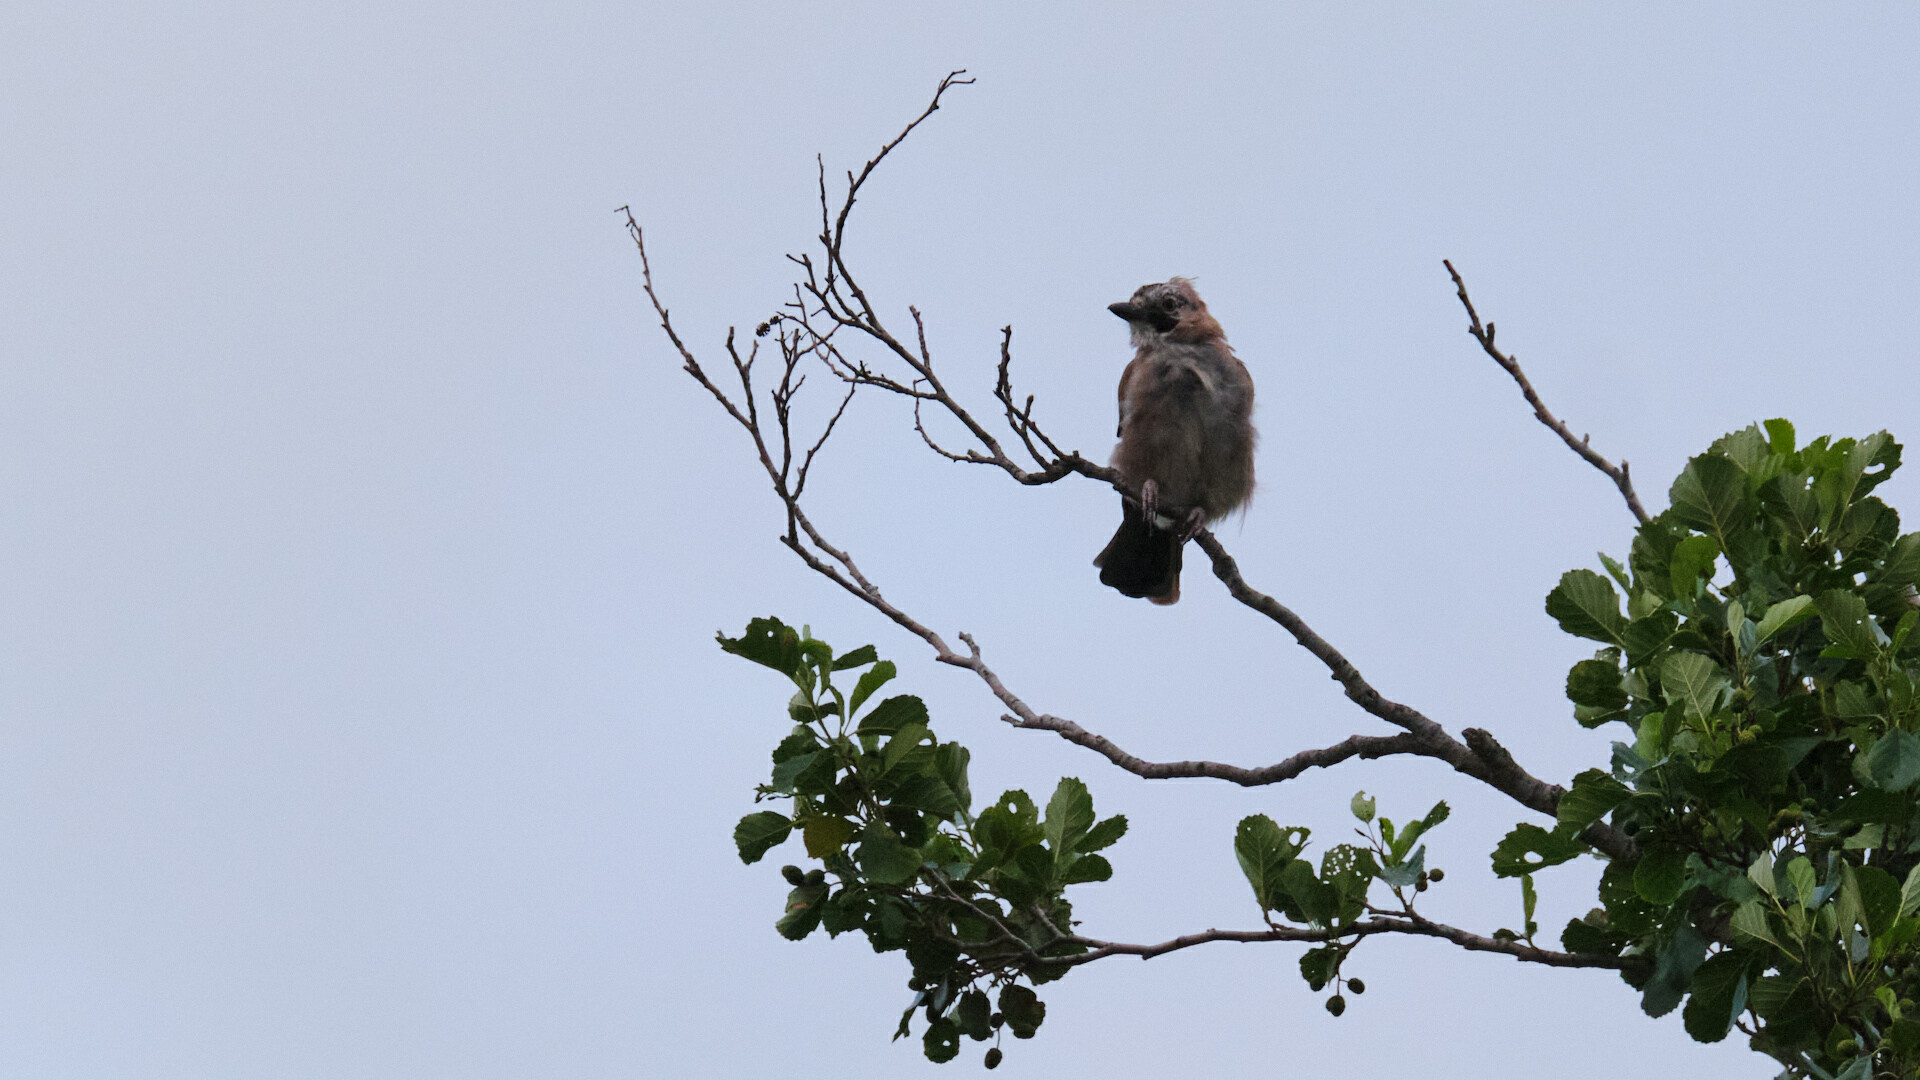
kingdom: Animalia
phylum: Chordata
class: Aves
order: Passeriformes
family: Corvidae
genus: Garrulus
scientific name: Garrulus glandarius
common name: Eurasian jay
